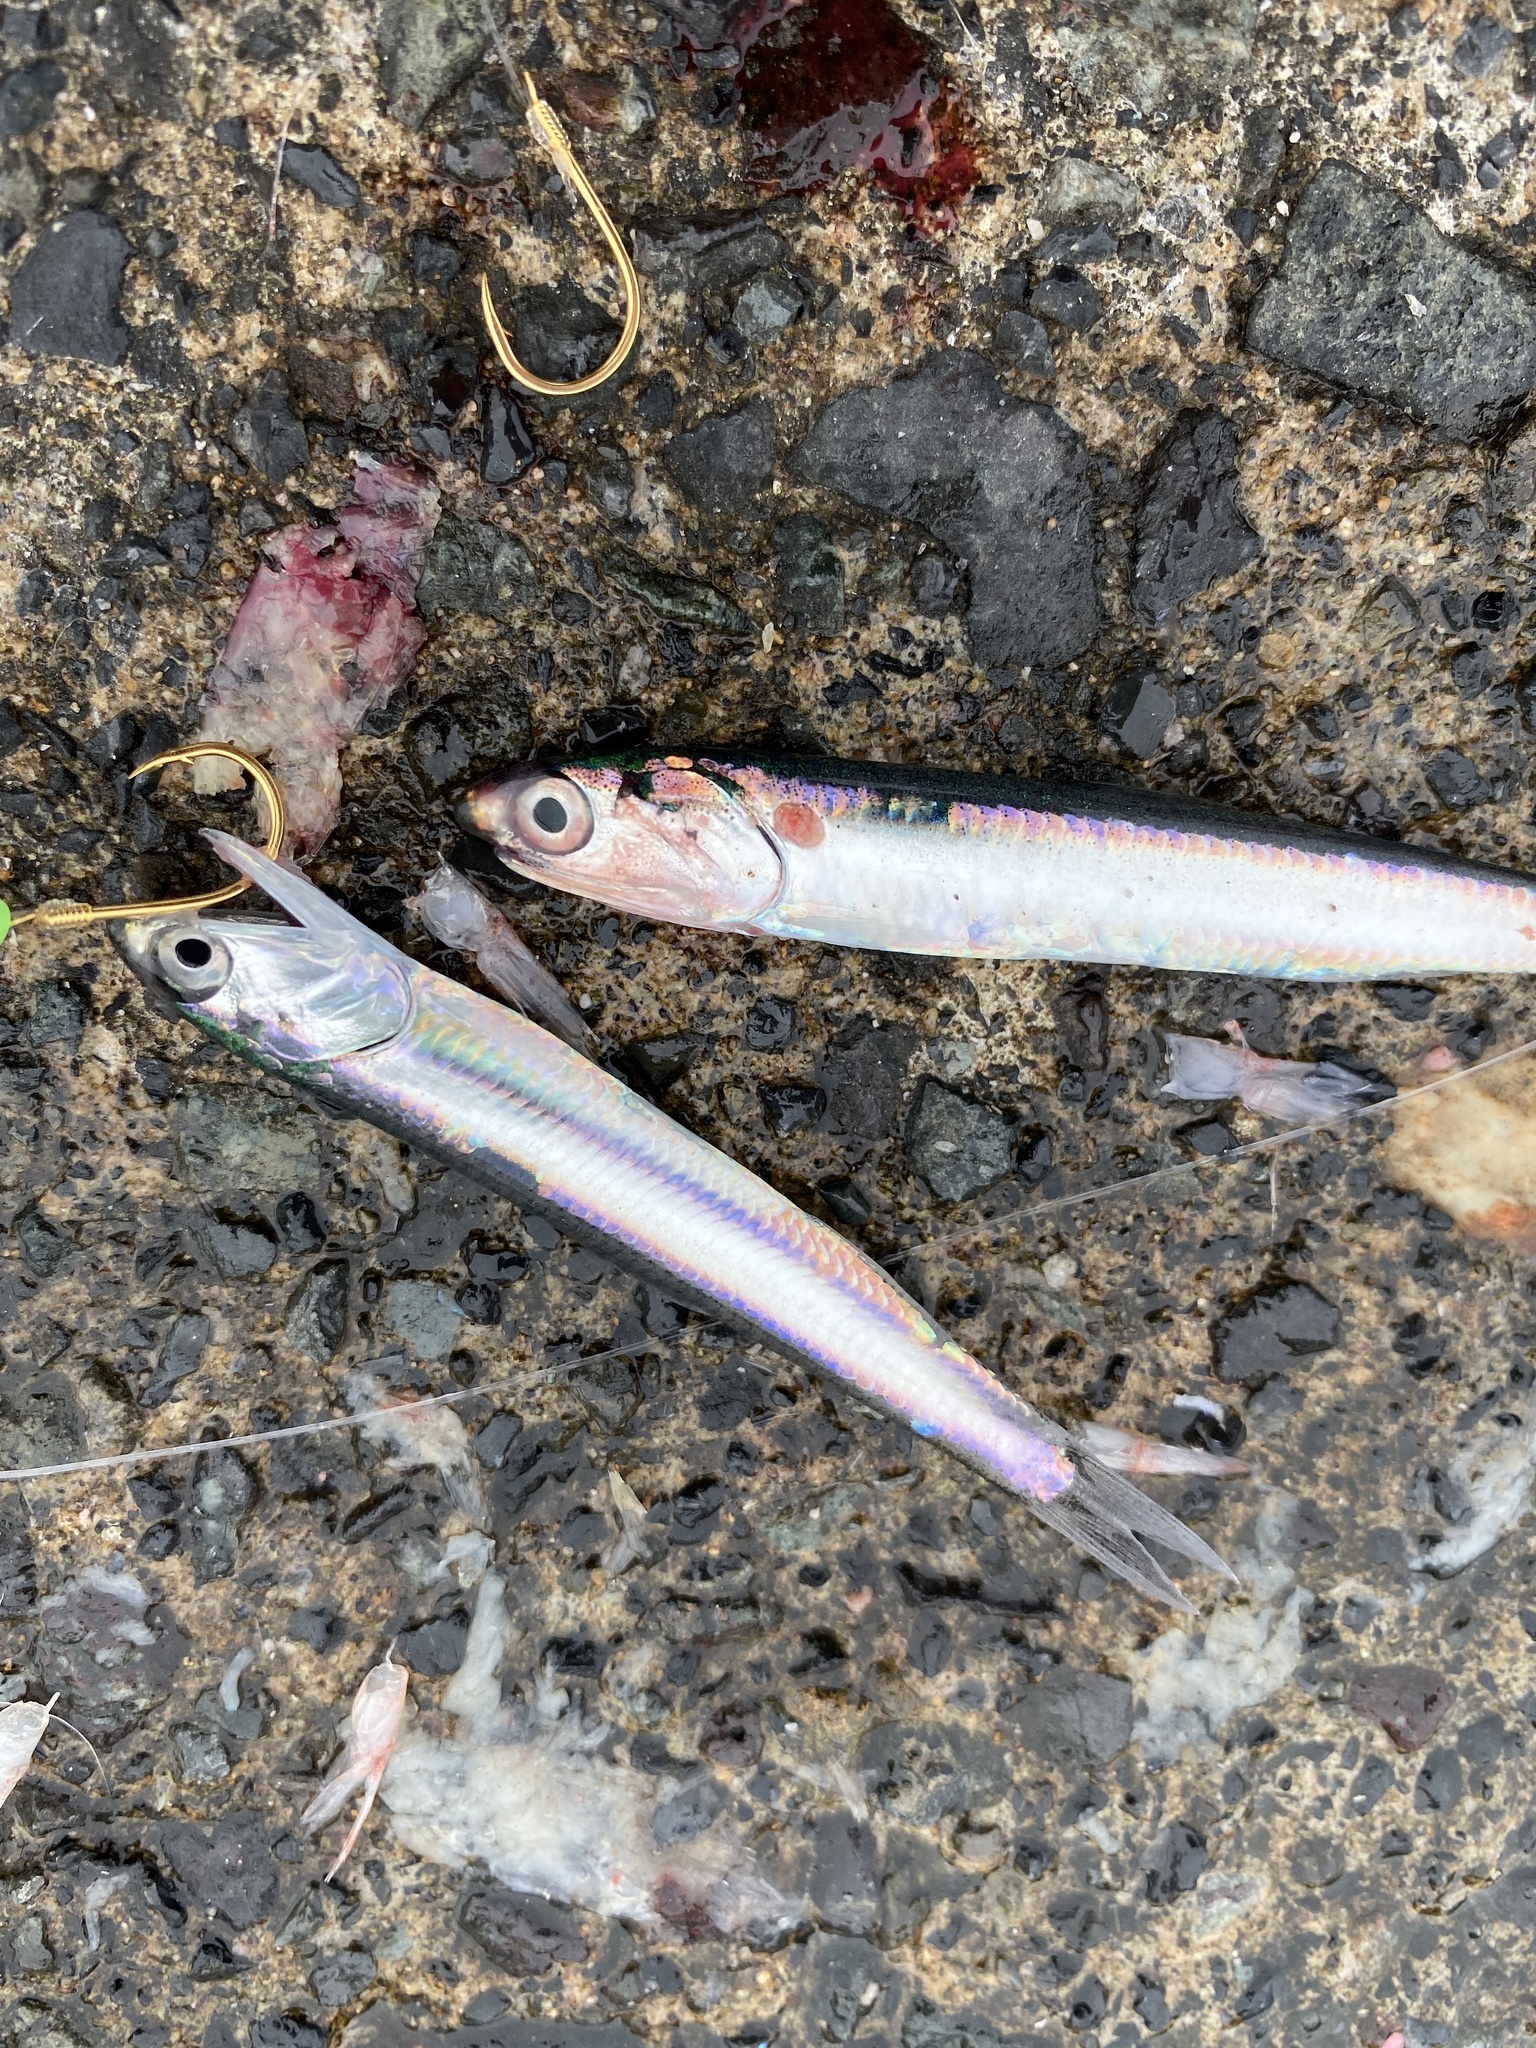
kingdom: Animalia
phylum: Chordata
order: Clupeiformes
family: Engraulidae
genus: Engraulis
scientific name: Engraulis japonicus
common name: Japanese anchovy
